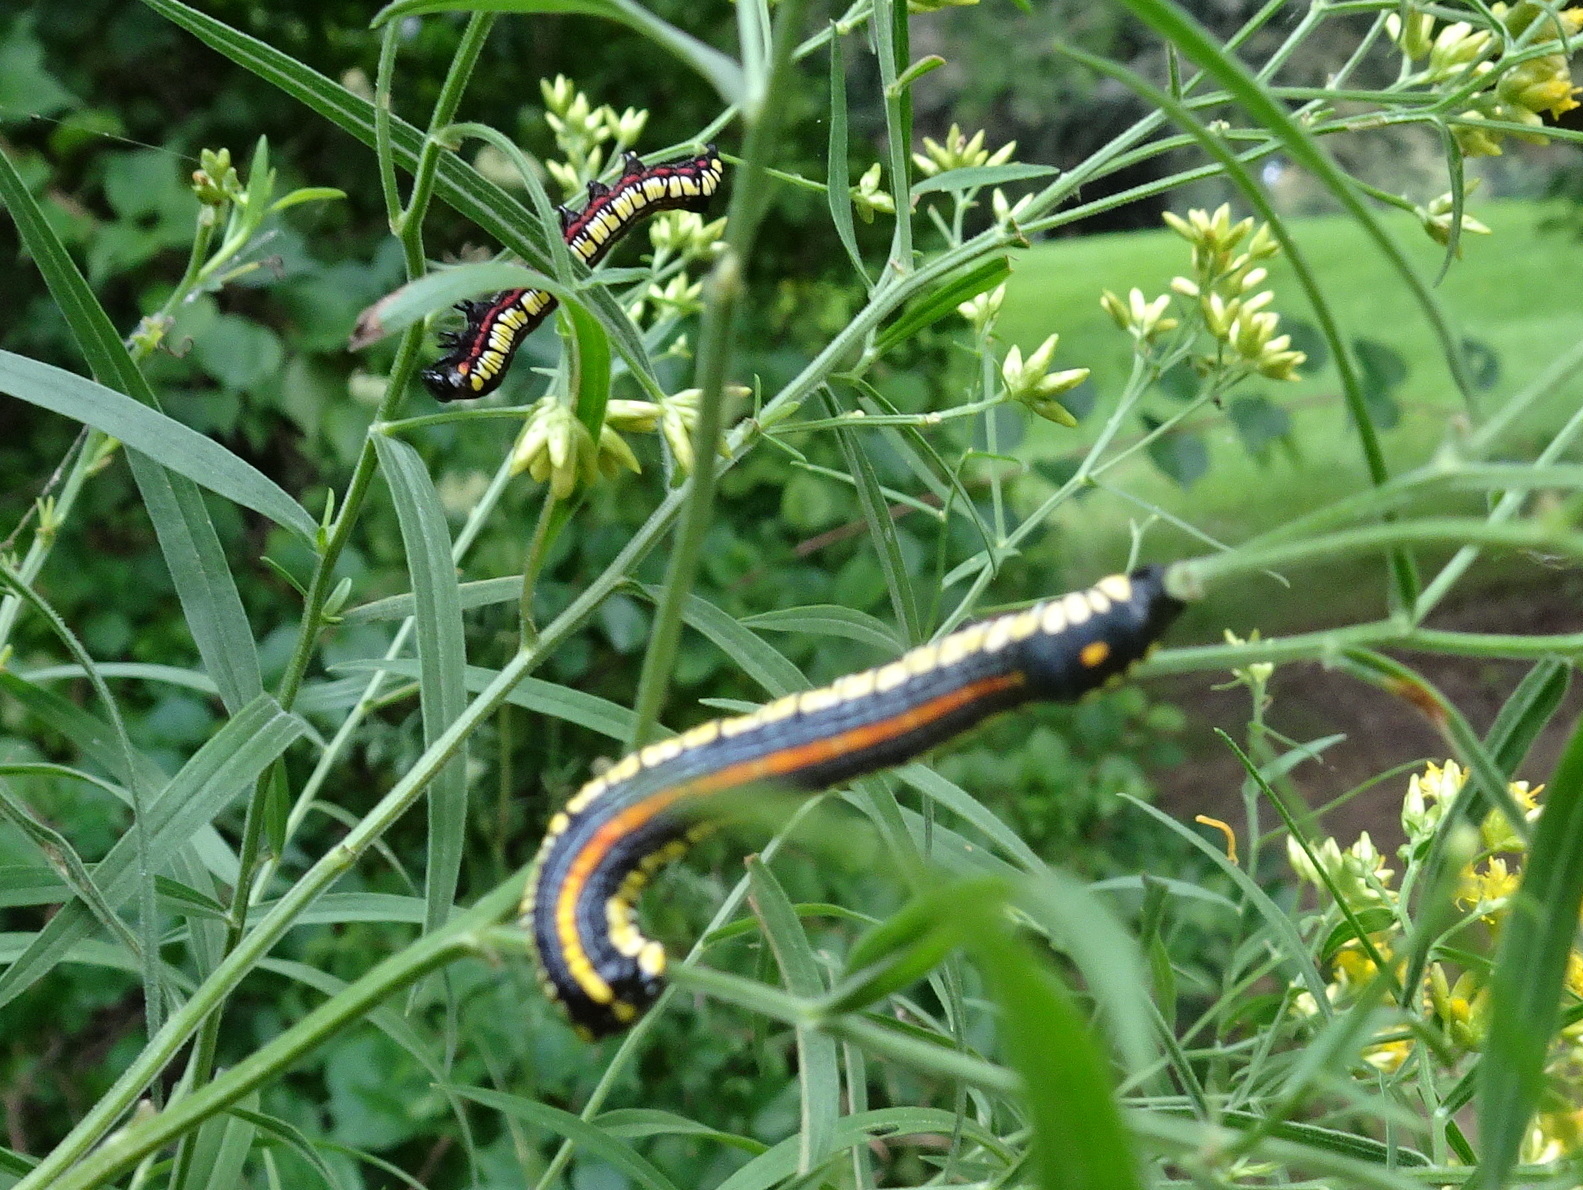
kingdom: Animalia
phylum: Arthropoda
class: Insecta
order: Lepidoptera
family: Noctuidae
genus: Cucullia
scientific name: Cucullia convexipennis
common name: Brown-hooded owlet
